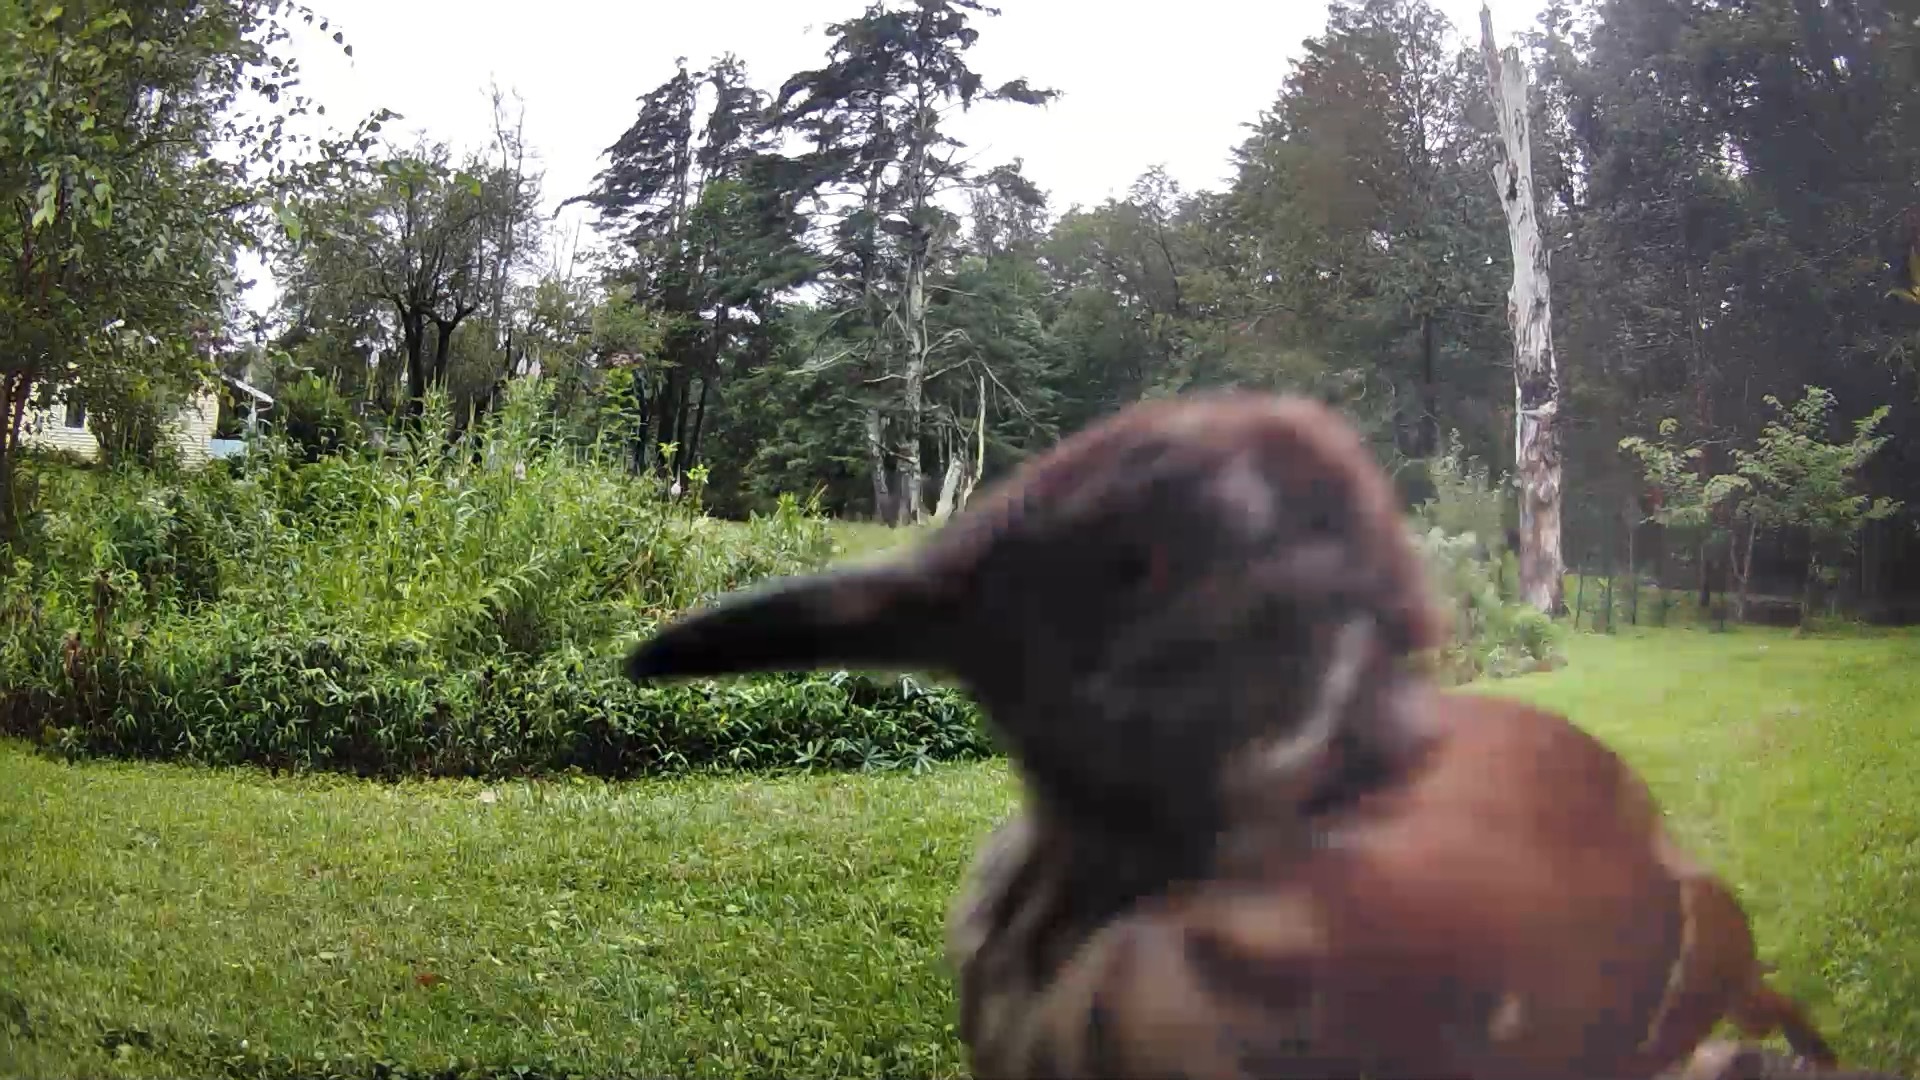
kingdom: Animalia
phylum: Chordata
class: Aves
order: Passeriformes
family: Mimidae
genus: Toxostoma
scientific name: Toxostoma rufum
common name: Brown thrasher
